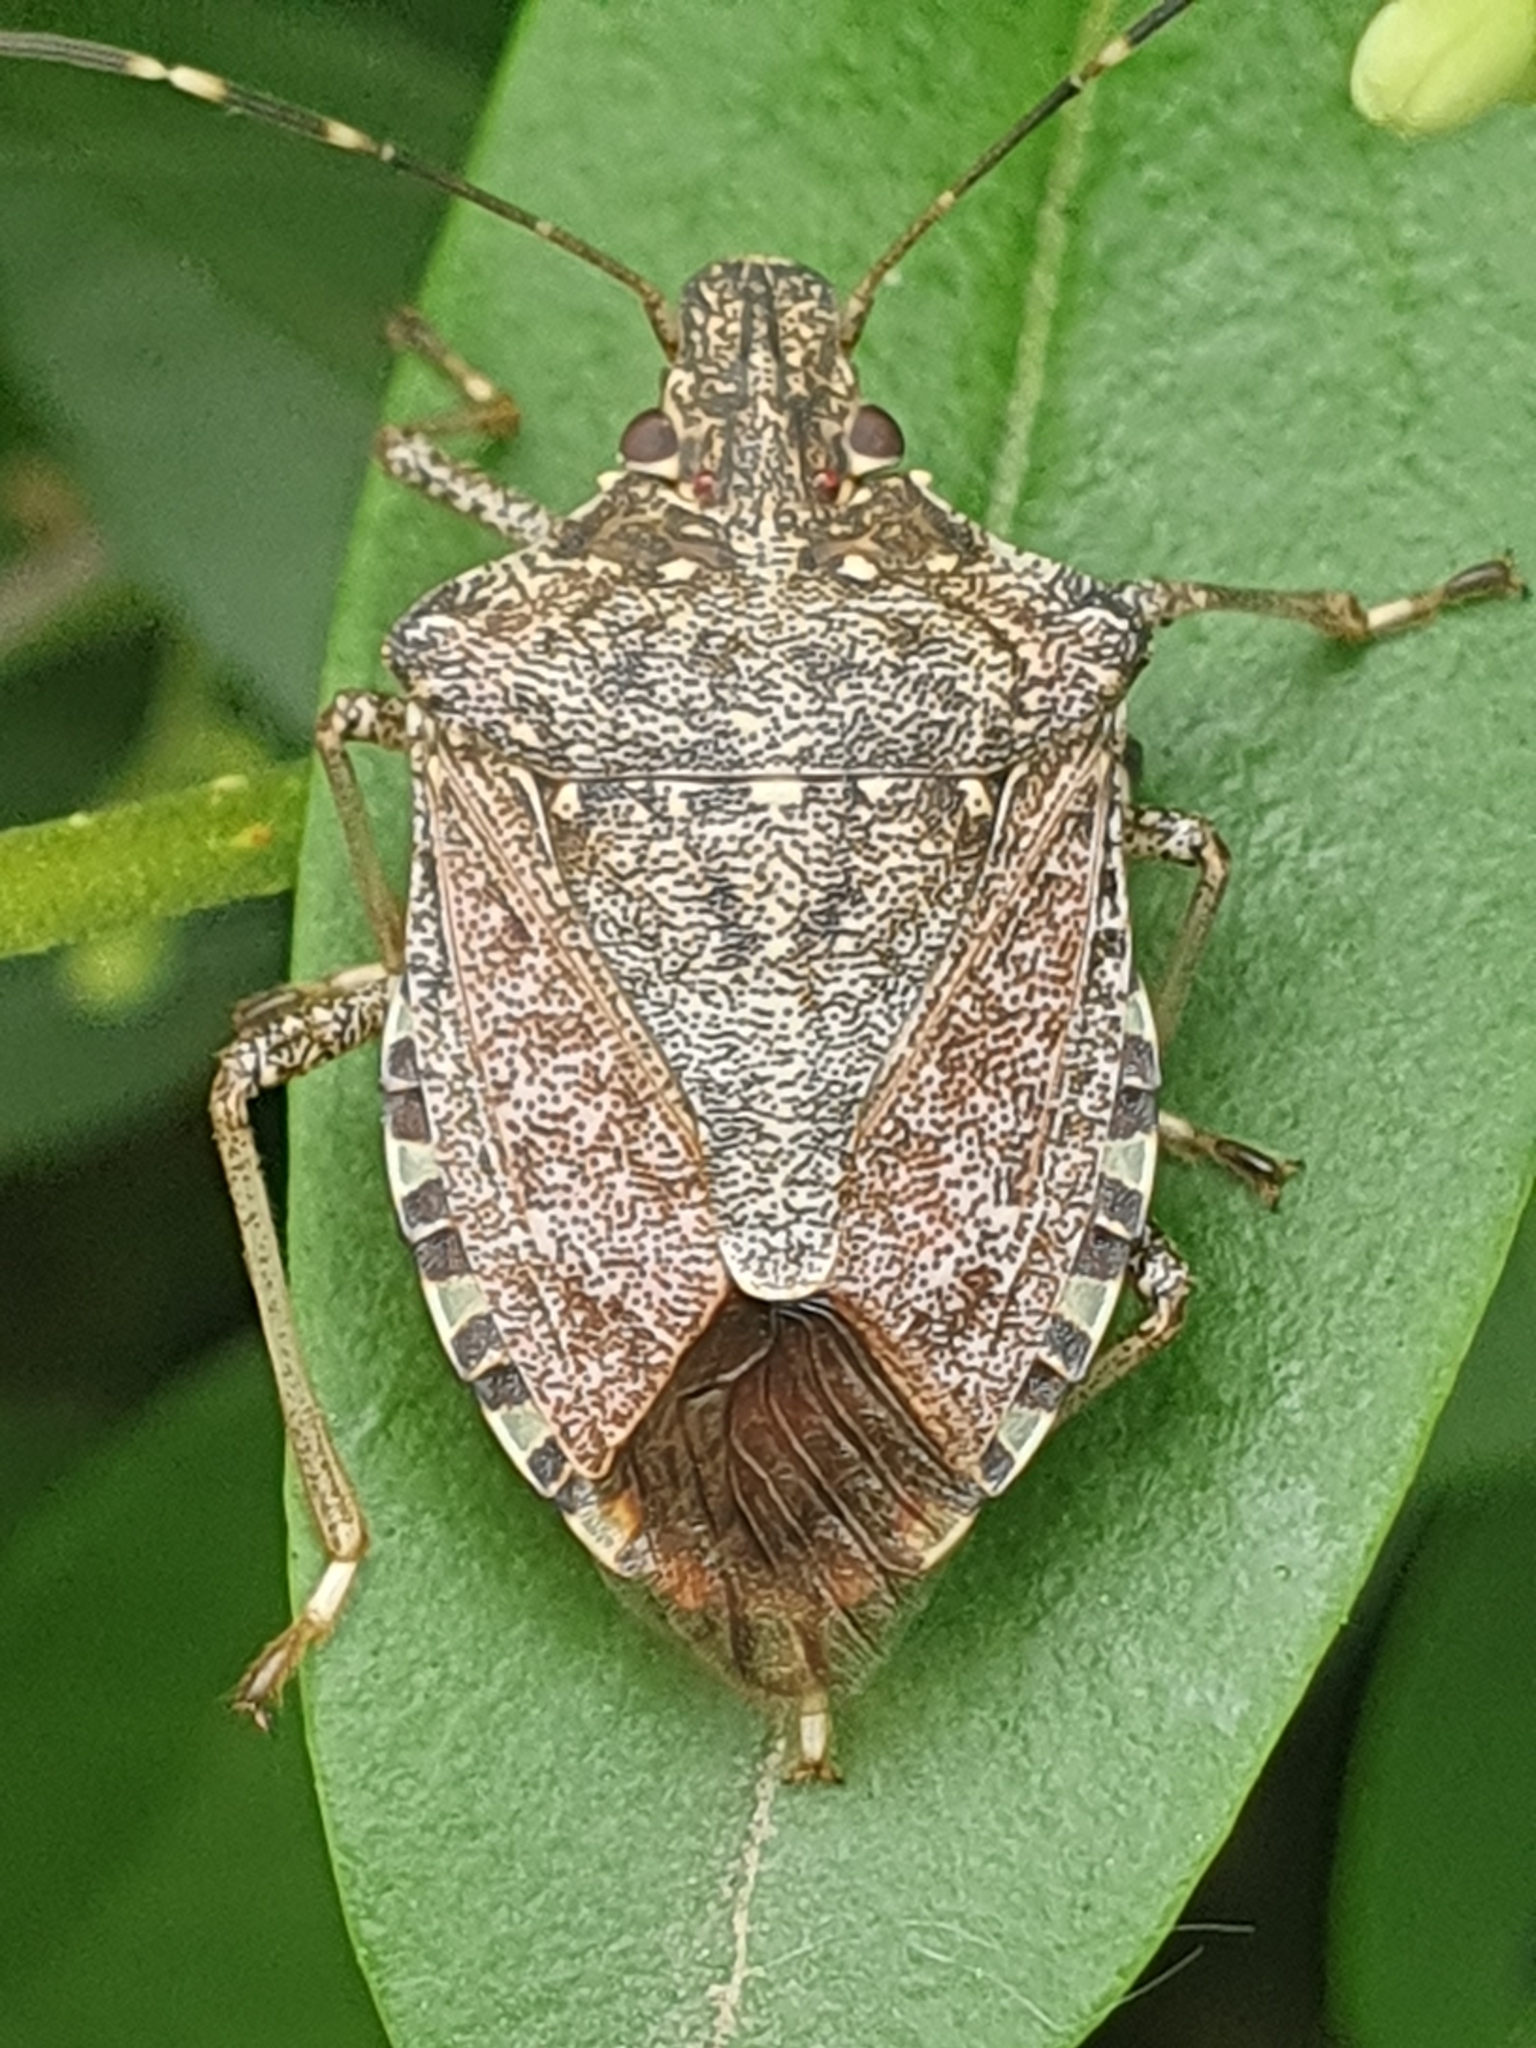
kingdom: Animalia
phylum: Arthropoda
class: Insecta
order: Hemiptera
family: Pentatomidae
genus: Halyomorpha
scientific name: Halyomorpha halys
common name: Brown marmorated stink bug
